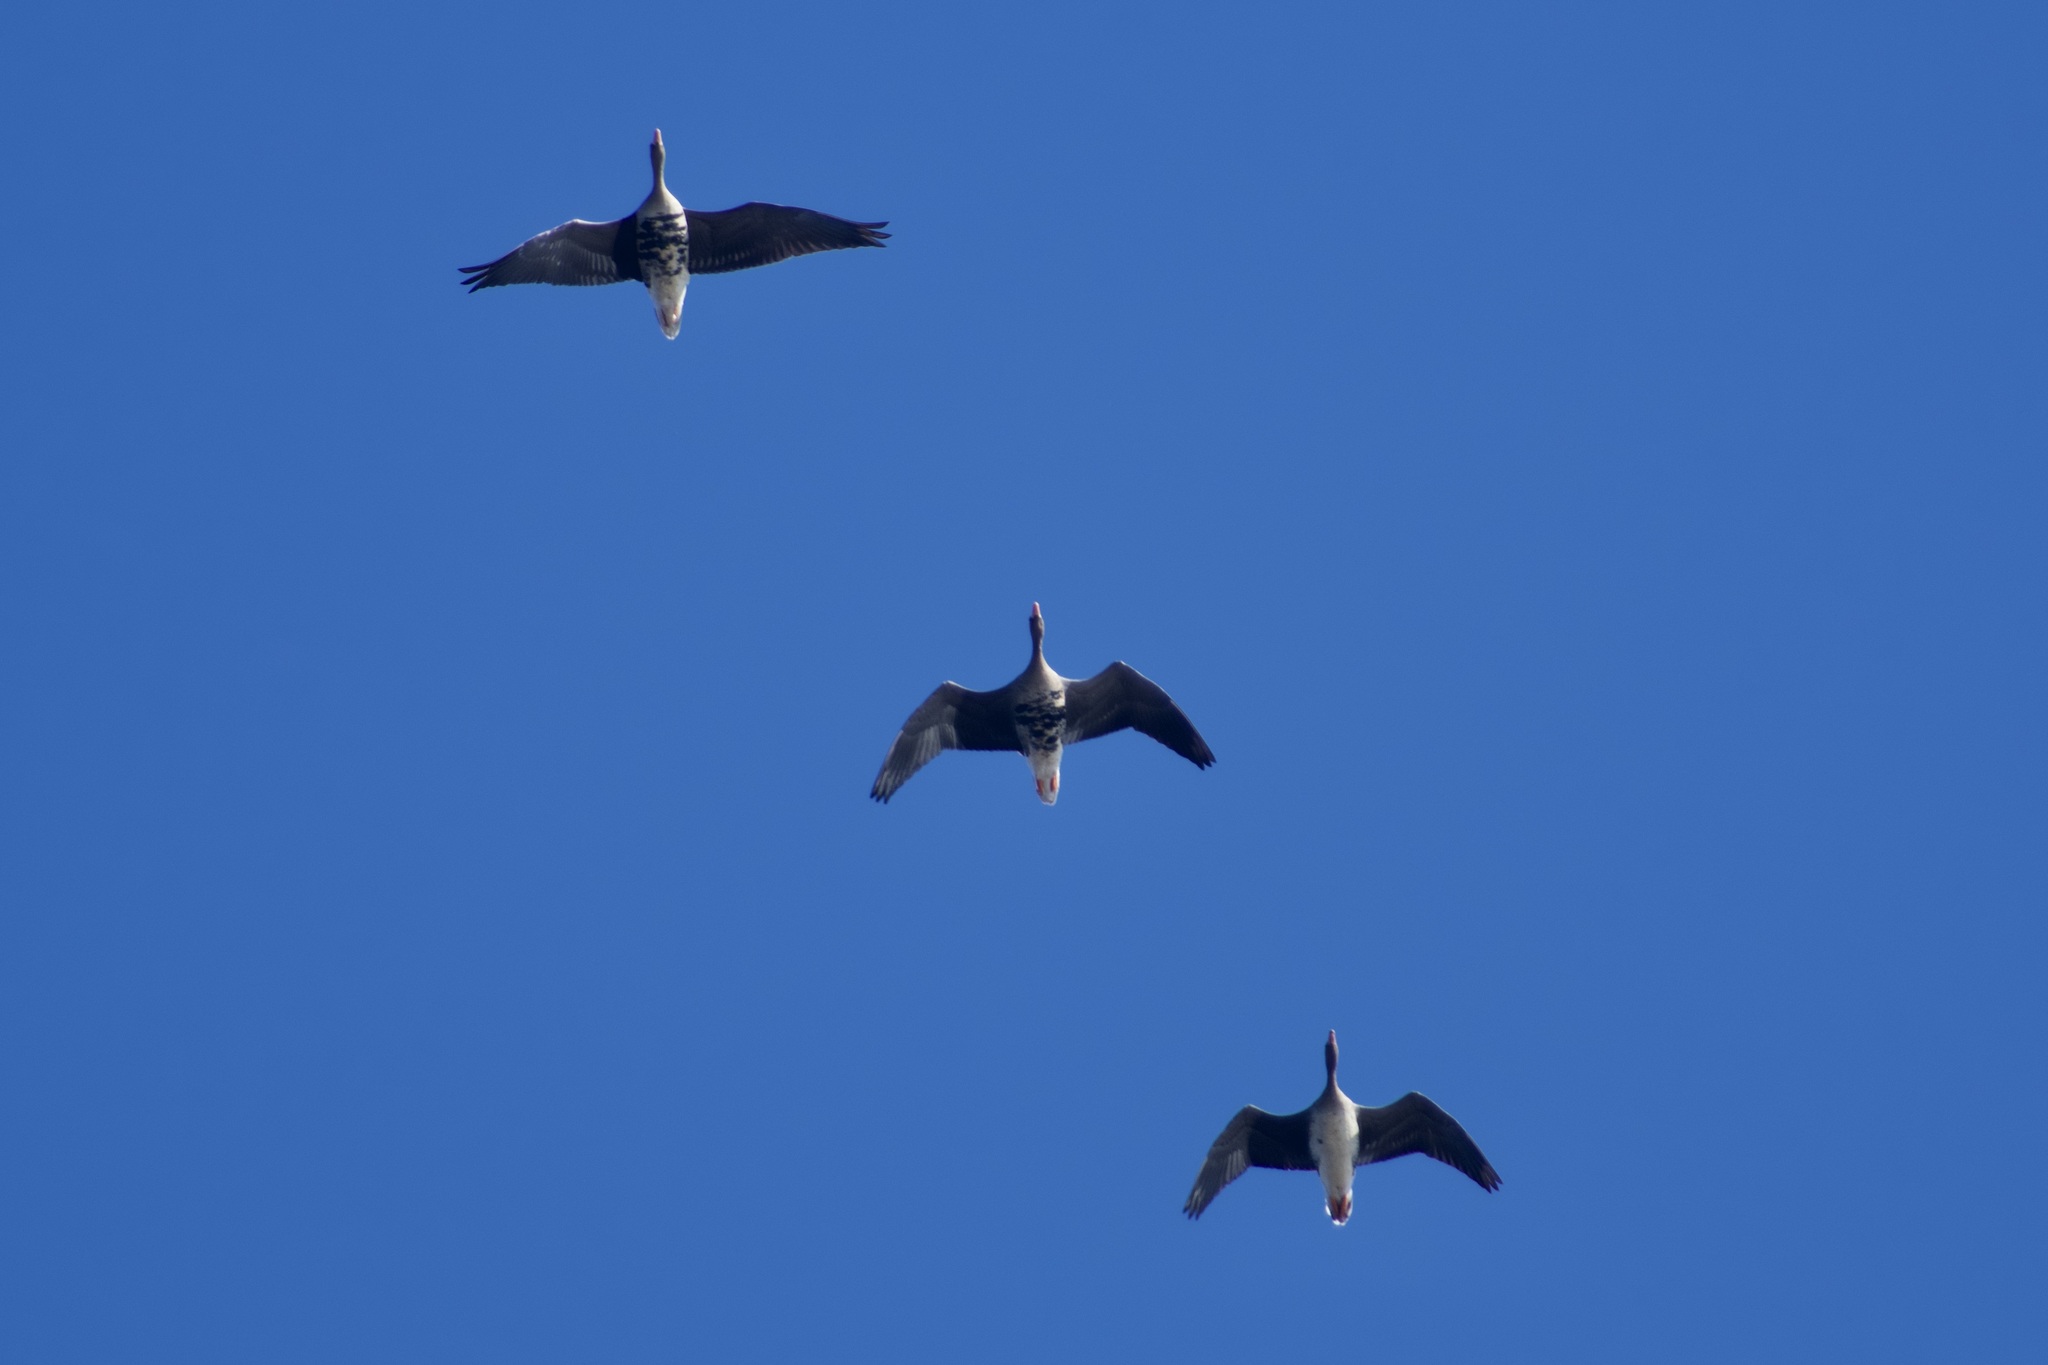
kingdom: Animalia
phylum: Chordata
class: Aves
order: Anseriformes
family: Anatidae
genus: Anser
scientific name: Anser albifrons
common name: Greater white-fronted goose
